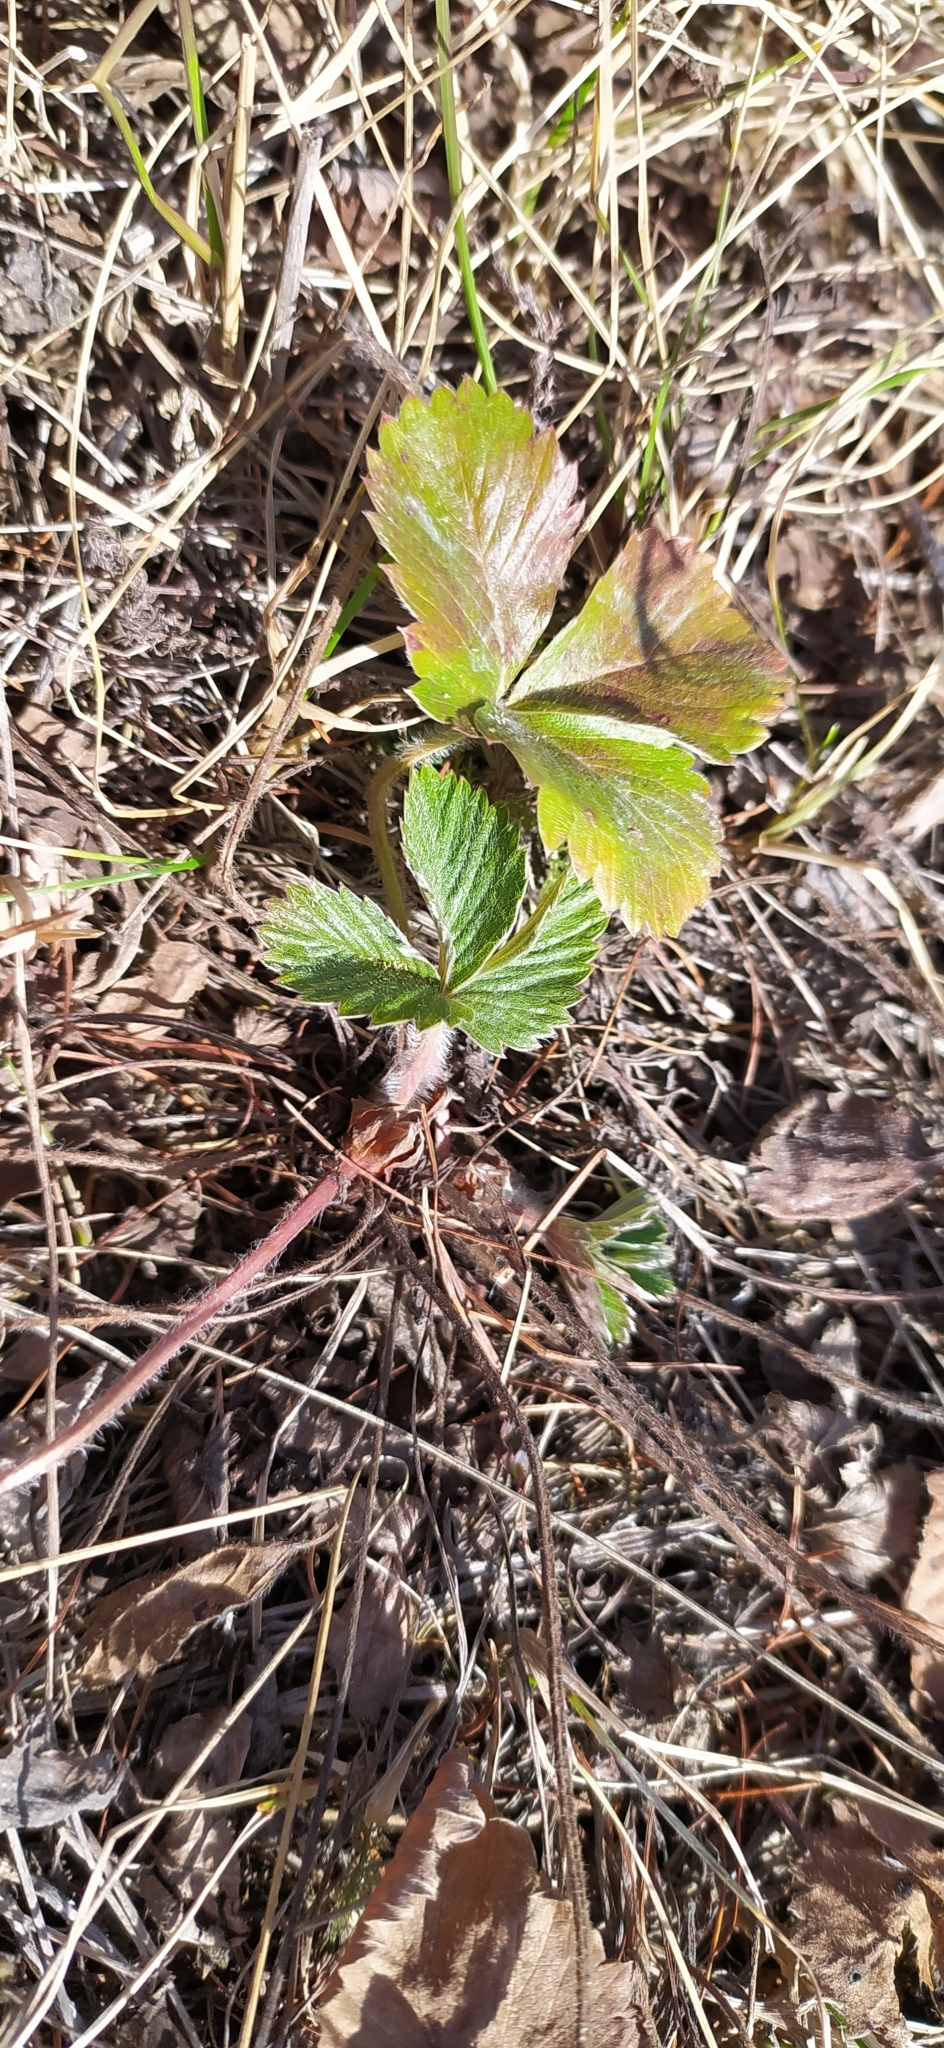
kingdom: Plantae
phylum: Tracheophyta
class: Magnoliopsida
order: Rosales
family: Rosaceae
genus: Fragaria
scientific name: Fragaria vesca
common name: Wild strawberry
